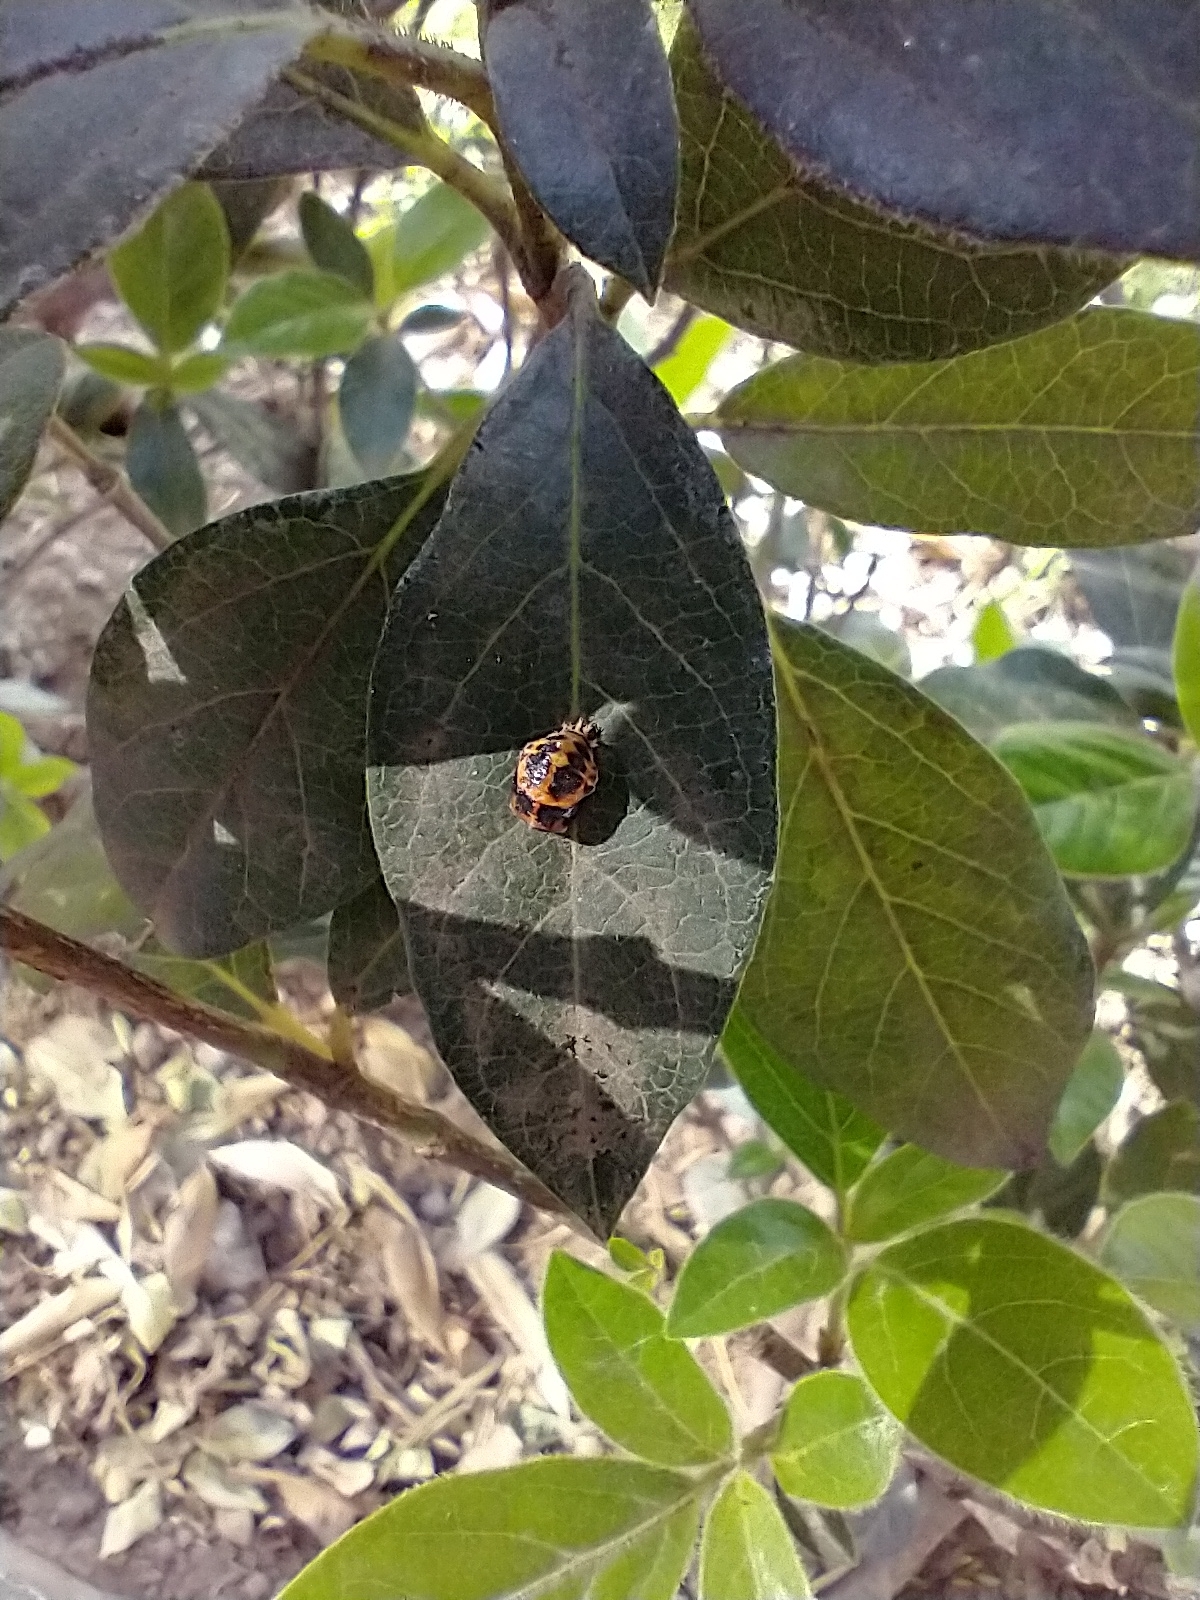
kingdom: Animalia
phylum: Arthropoda
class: Insecta
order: Coleoptera
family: Coccinellidae
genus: Harmonia
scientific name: Harmonia axyridis
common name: Harlequin ladybird
